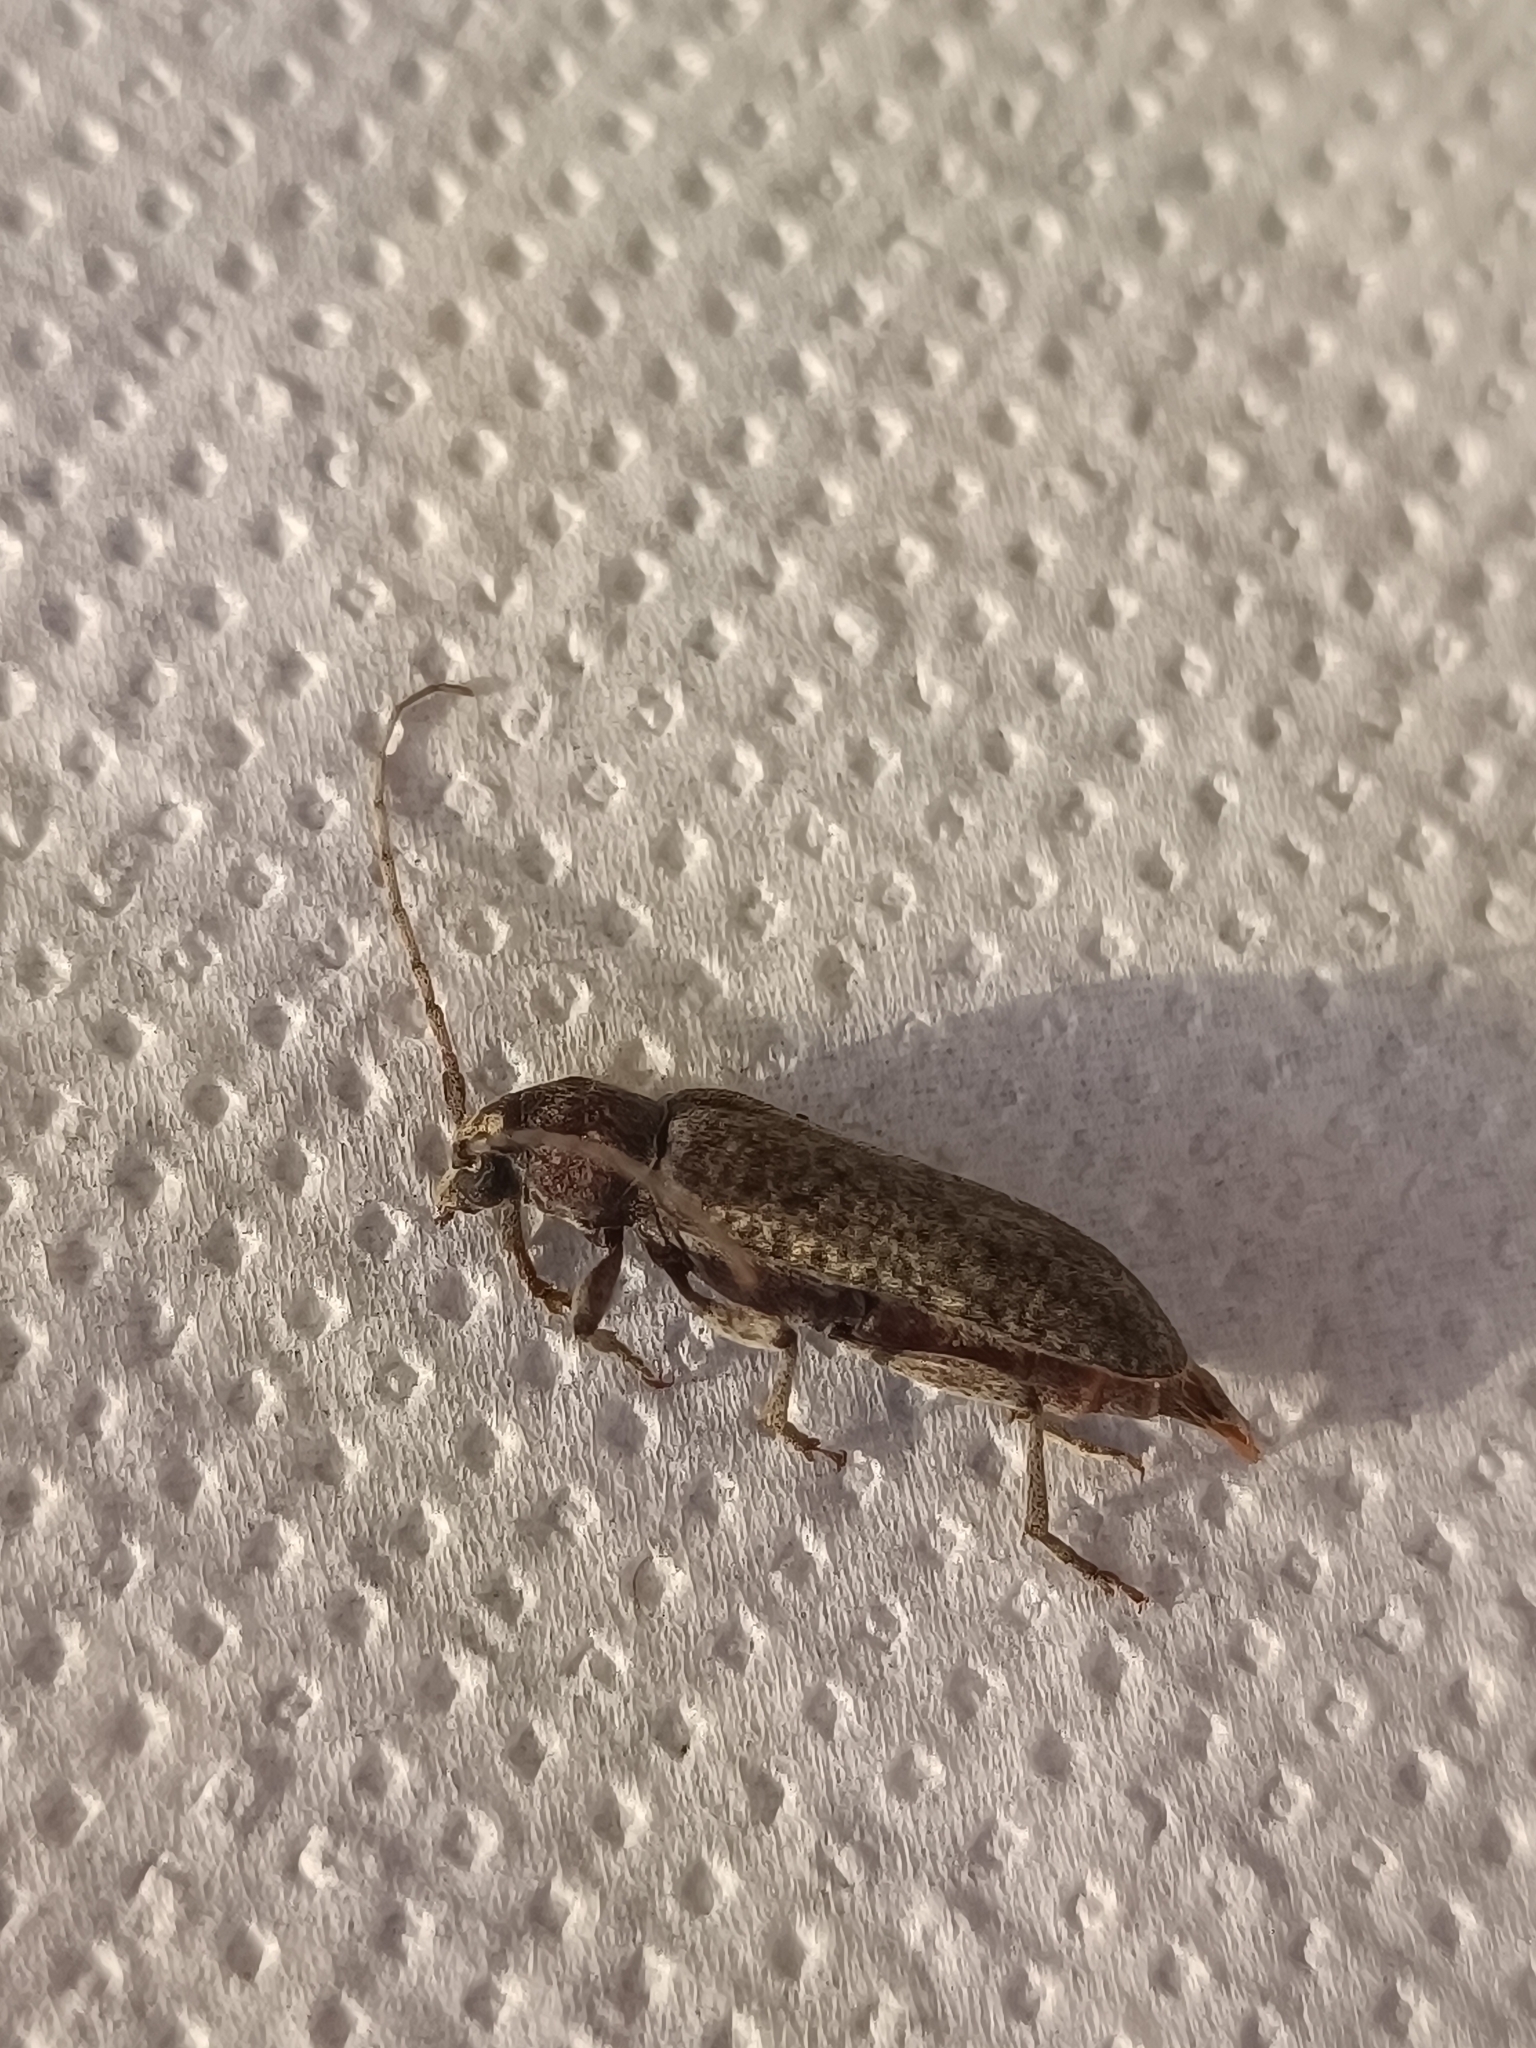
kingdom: Animalia
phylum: Arthropoda
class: Insecta
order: Coleoptera
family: Cerambycidae
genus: Trichoferus
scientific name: Trichoferus holosericeus
